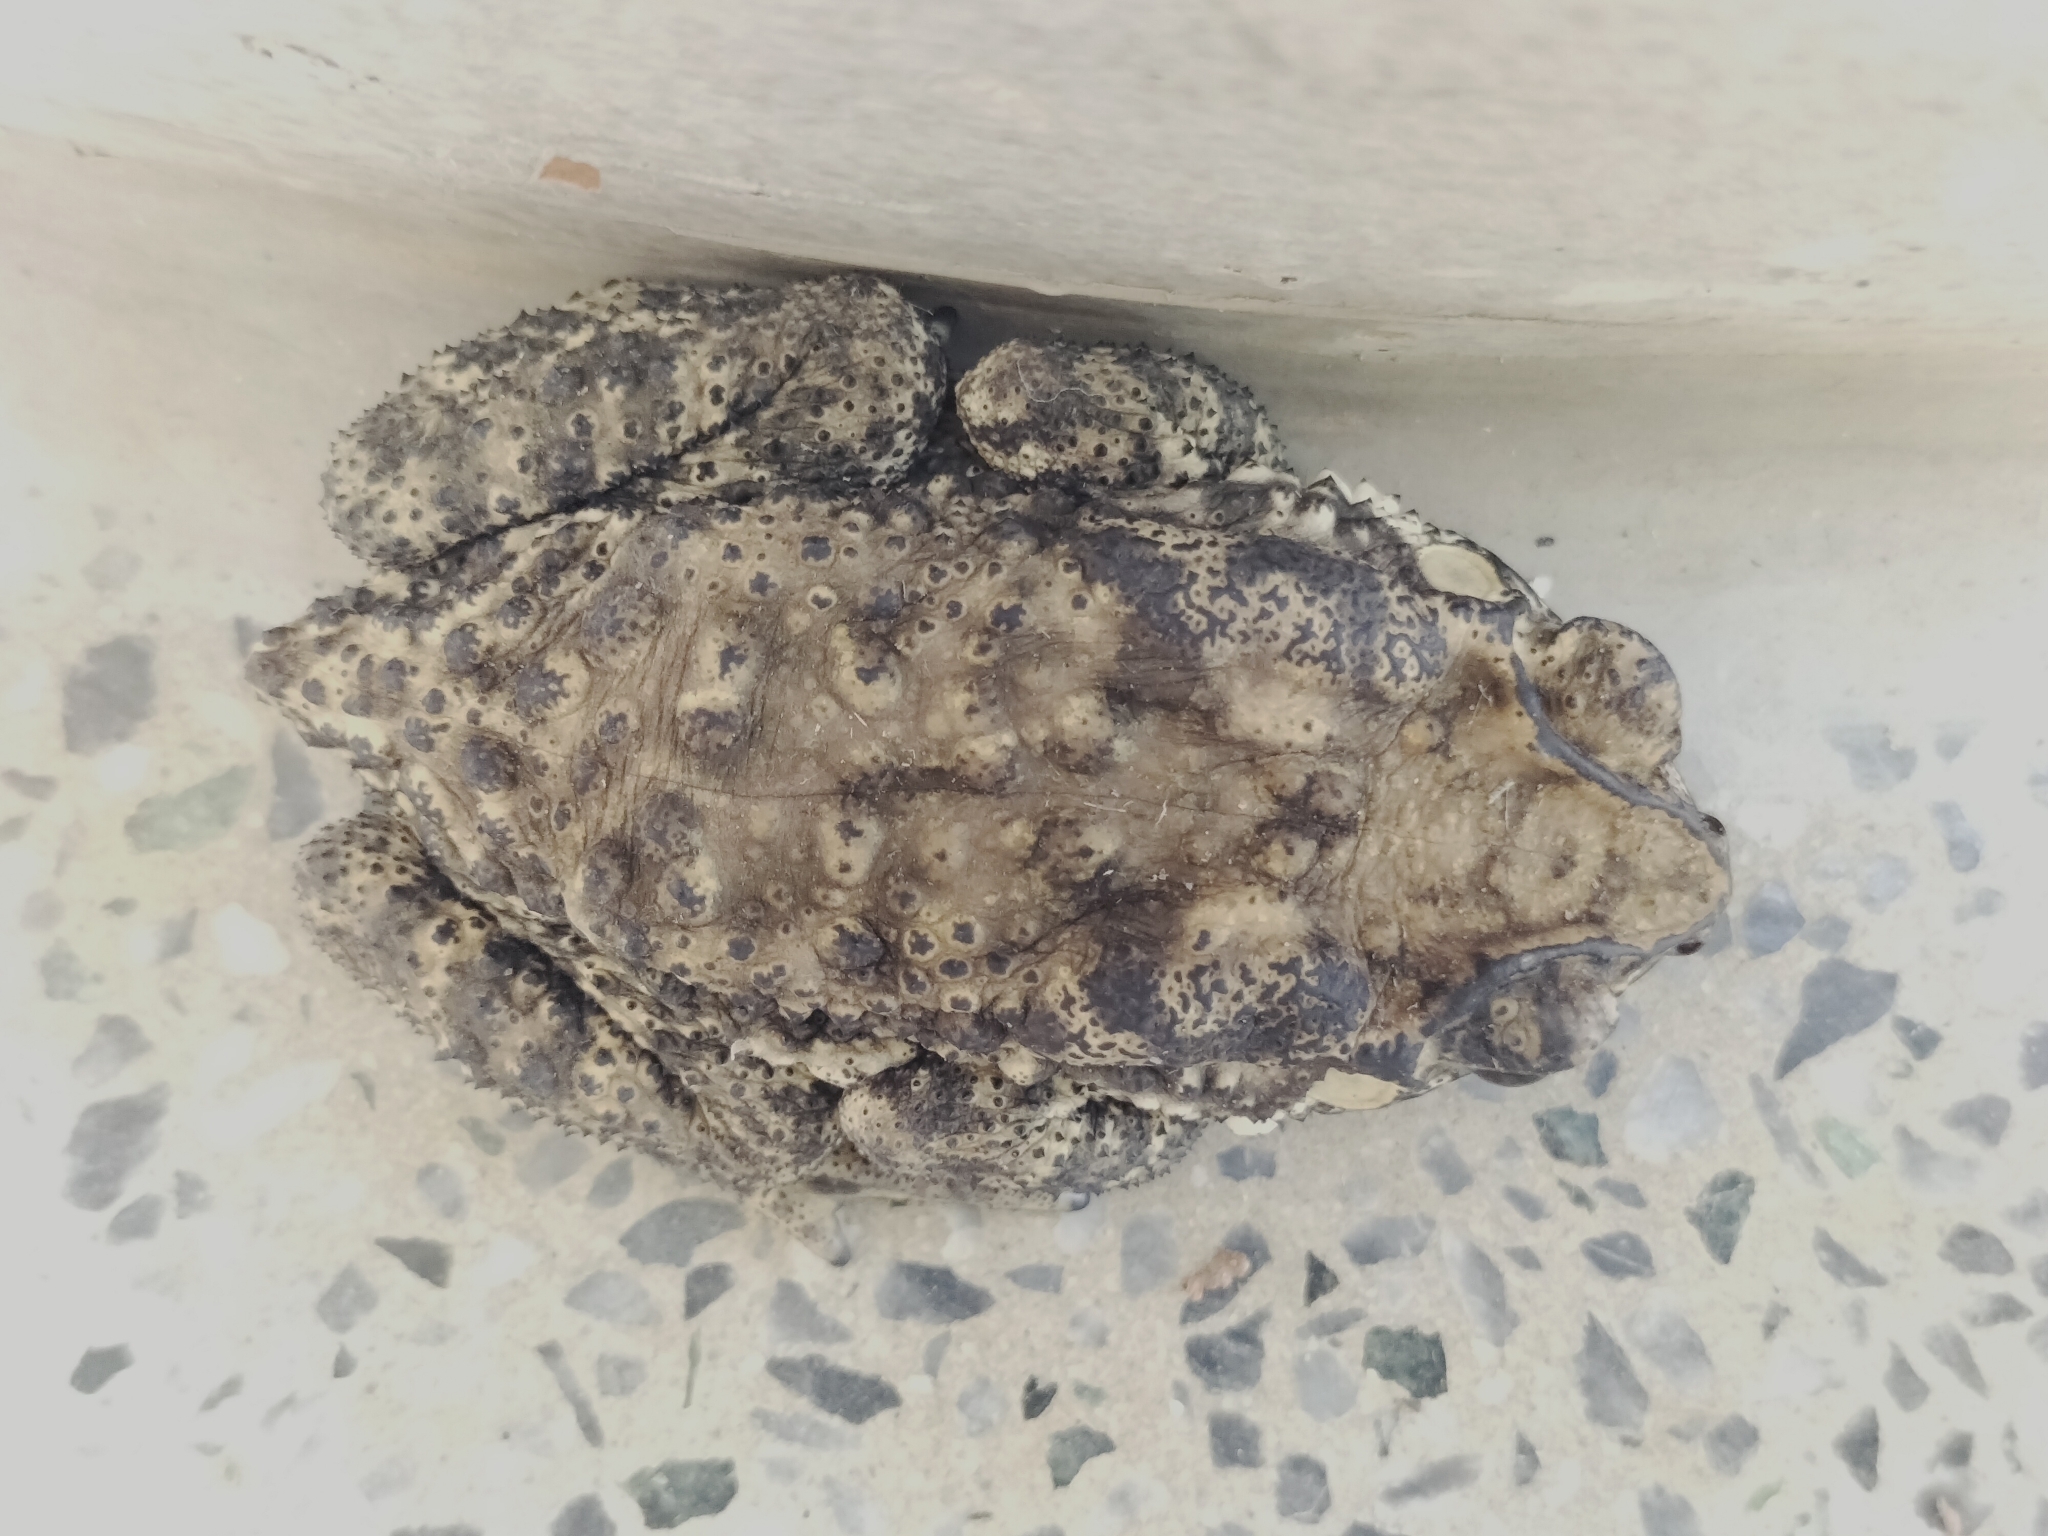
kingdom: Animalia
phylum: Chordata
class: Amphibia
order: Anura
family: Bufonidae
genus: Duttaphrynus
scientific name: Duttaphrynus melanostictus
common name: Common sunda toad
